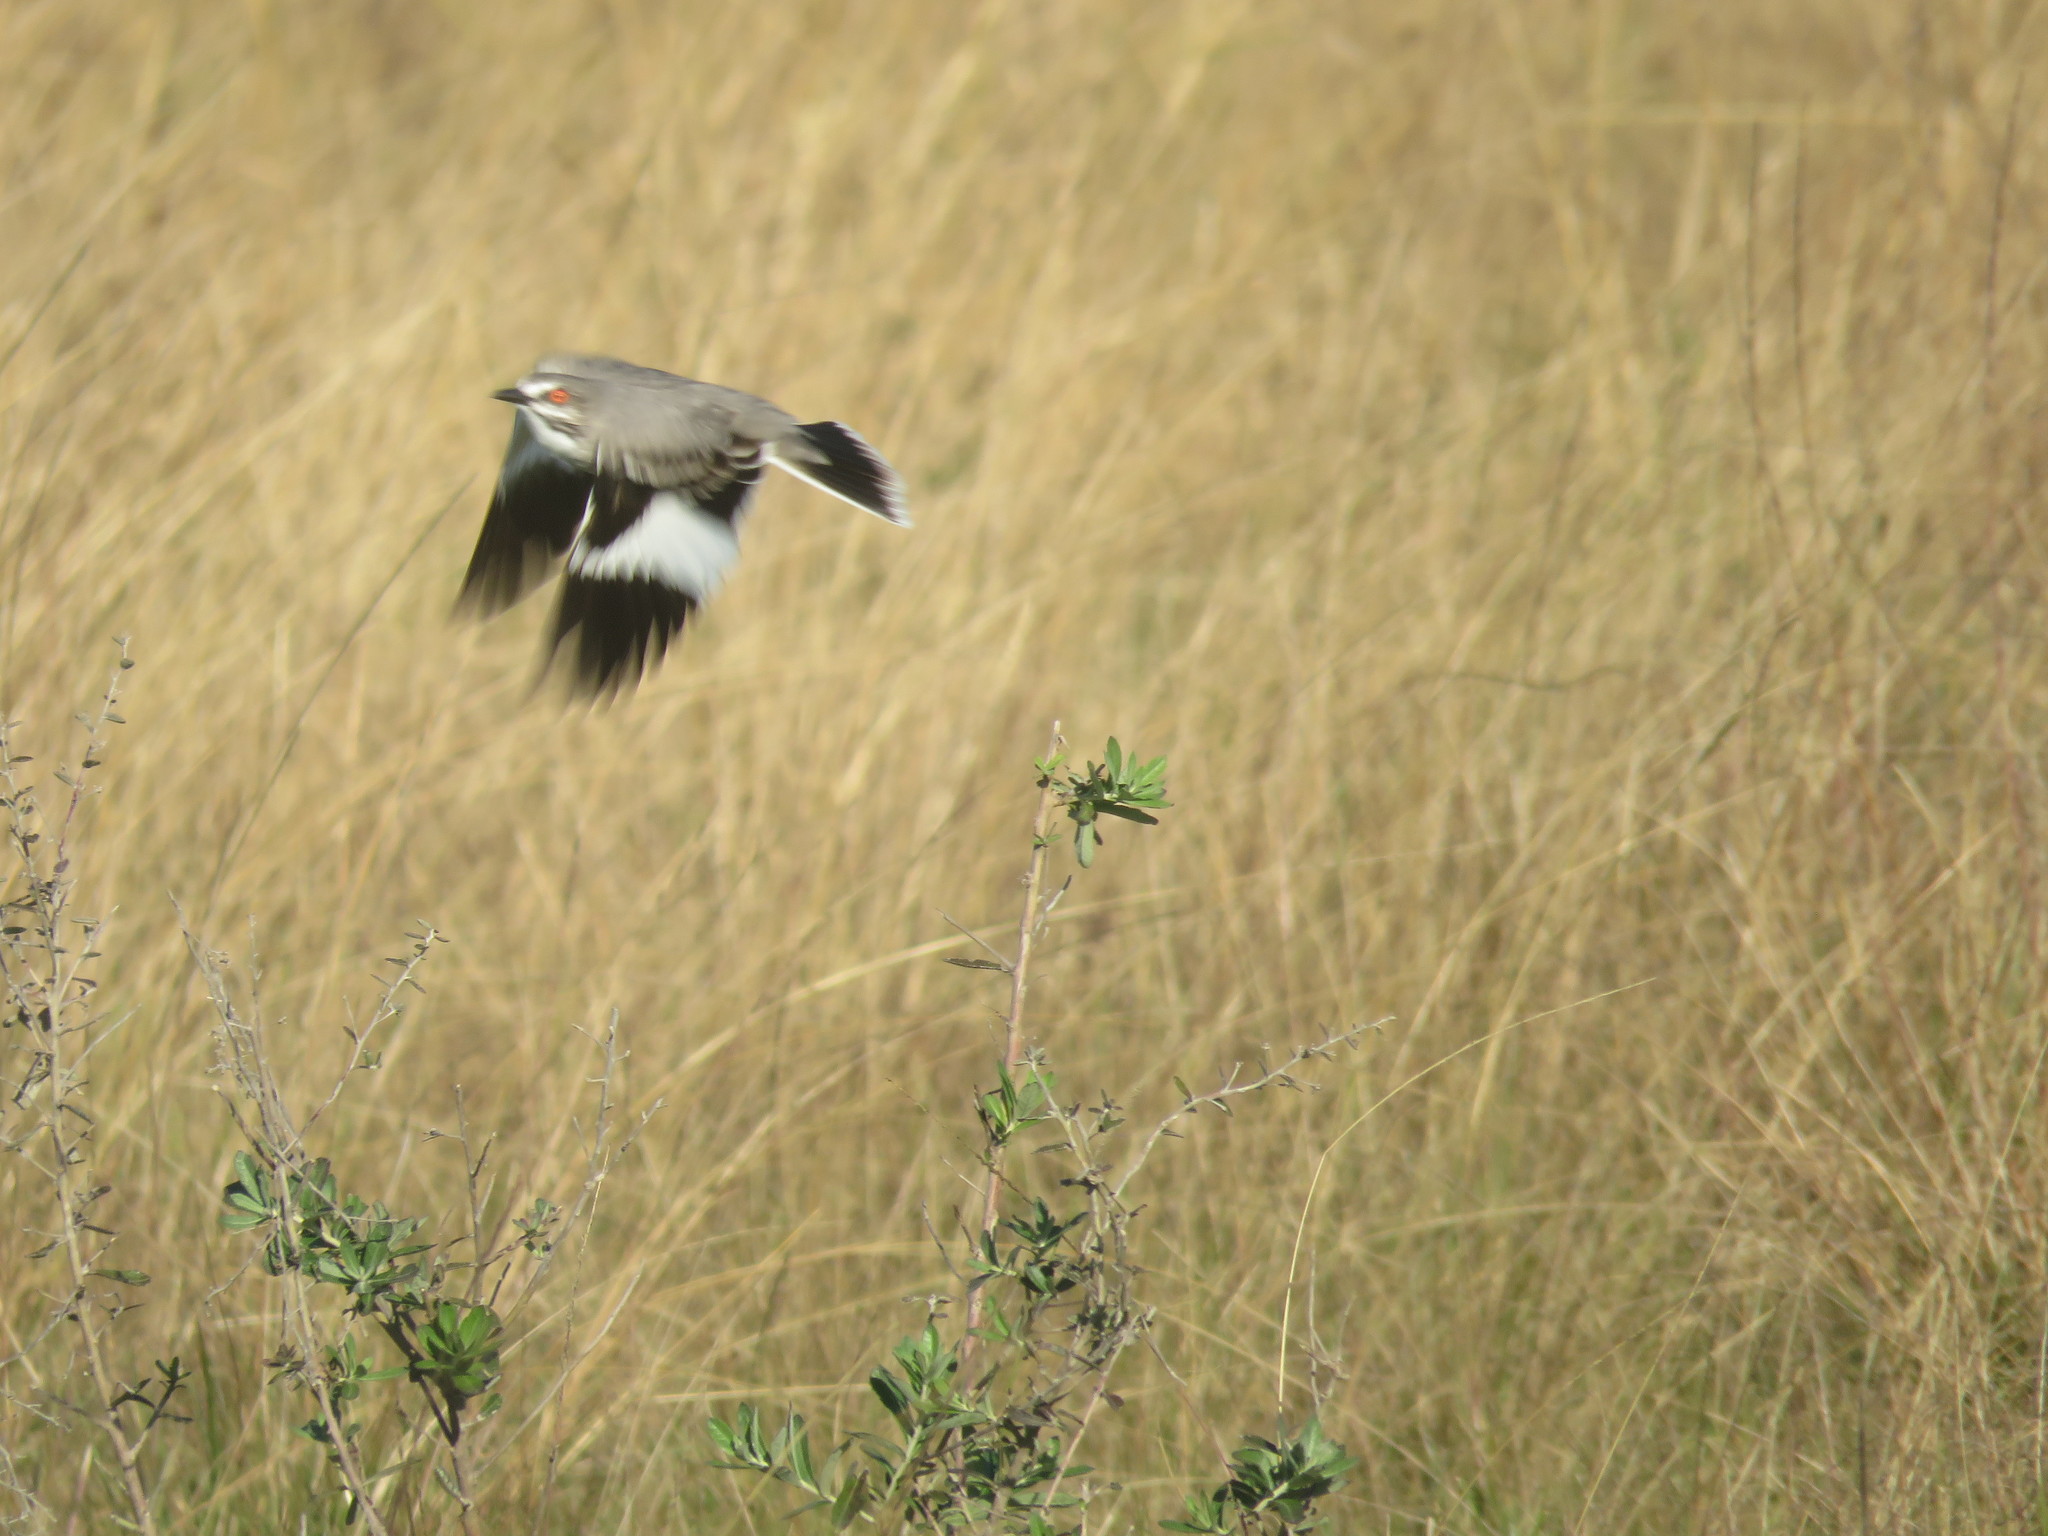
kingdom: Animalia
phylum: Chordata
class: Aves
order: Passeriformes
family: Tyrannidae
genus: Xolmis
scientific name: Xolmis cinereus
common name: Grey monjita
